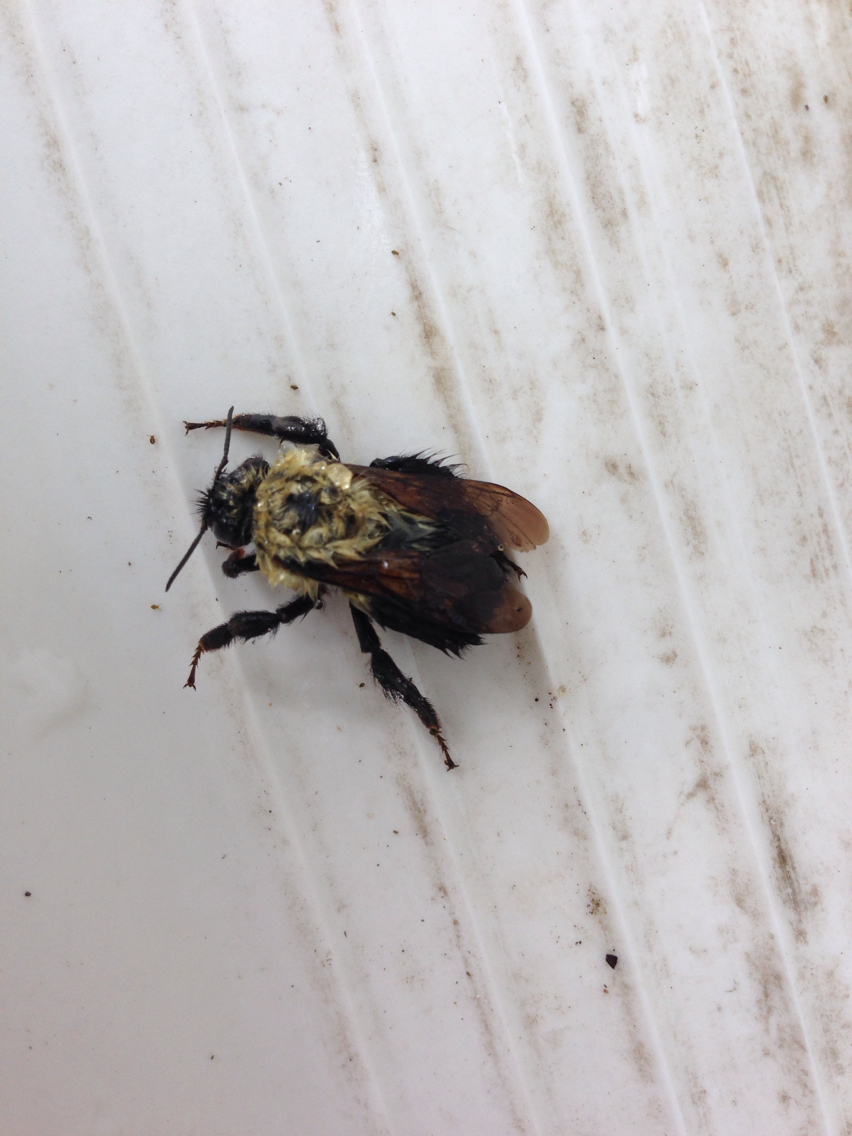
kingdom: Animalia
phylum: Arthropoda
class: Insecta
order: Hymenoptera
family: Apidae
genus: Bombus
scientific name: Bombus bimaculatus
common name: Two-spotted bumble bee
